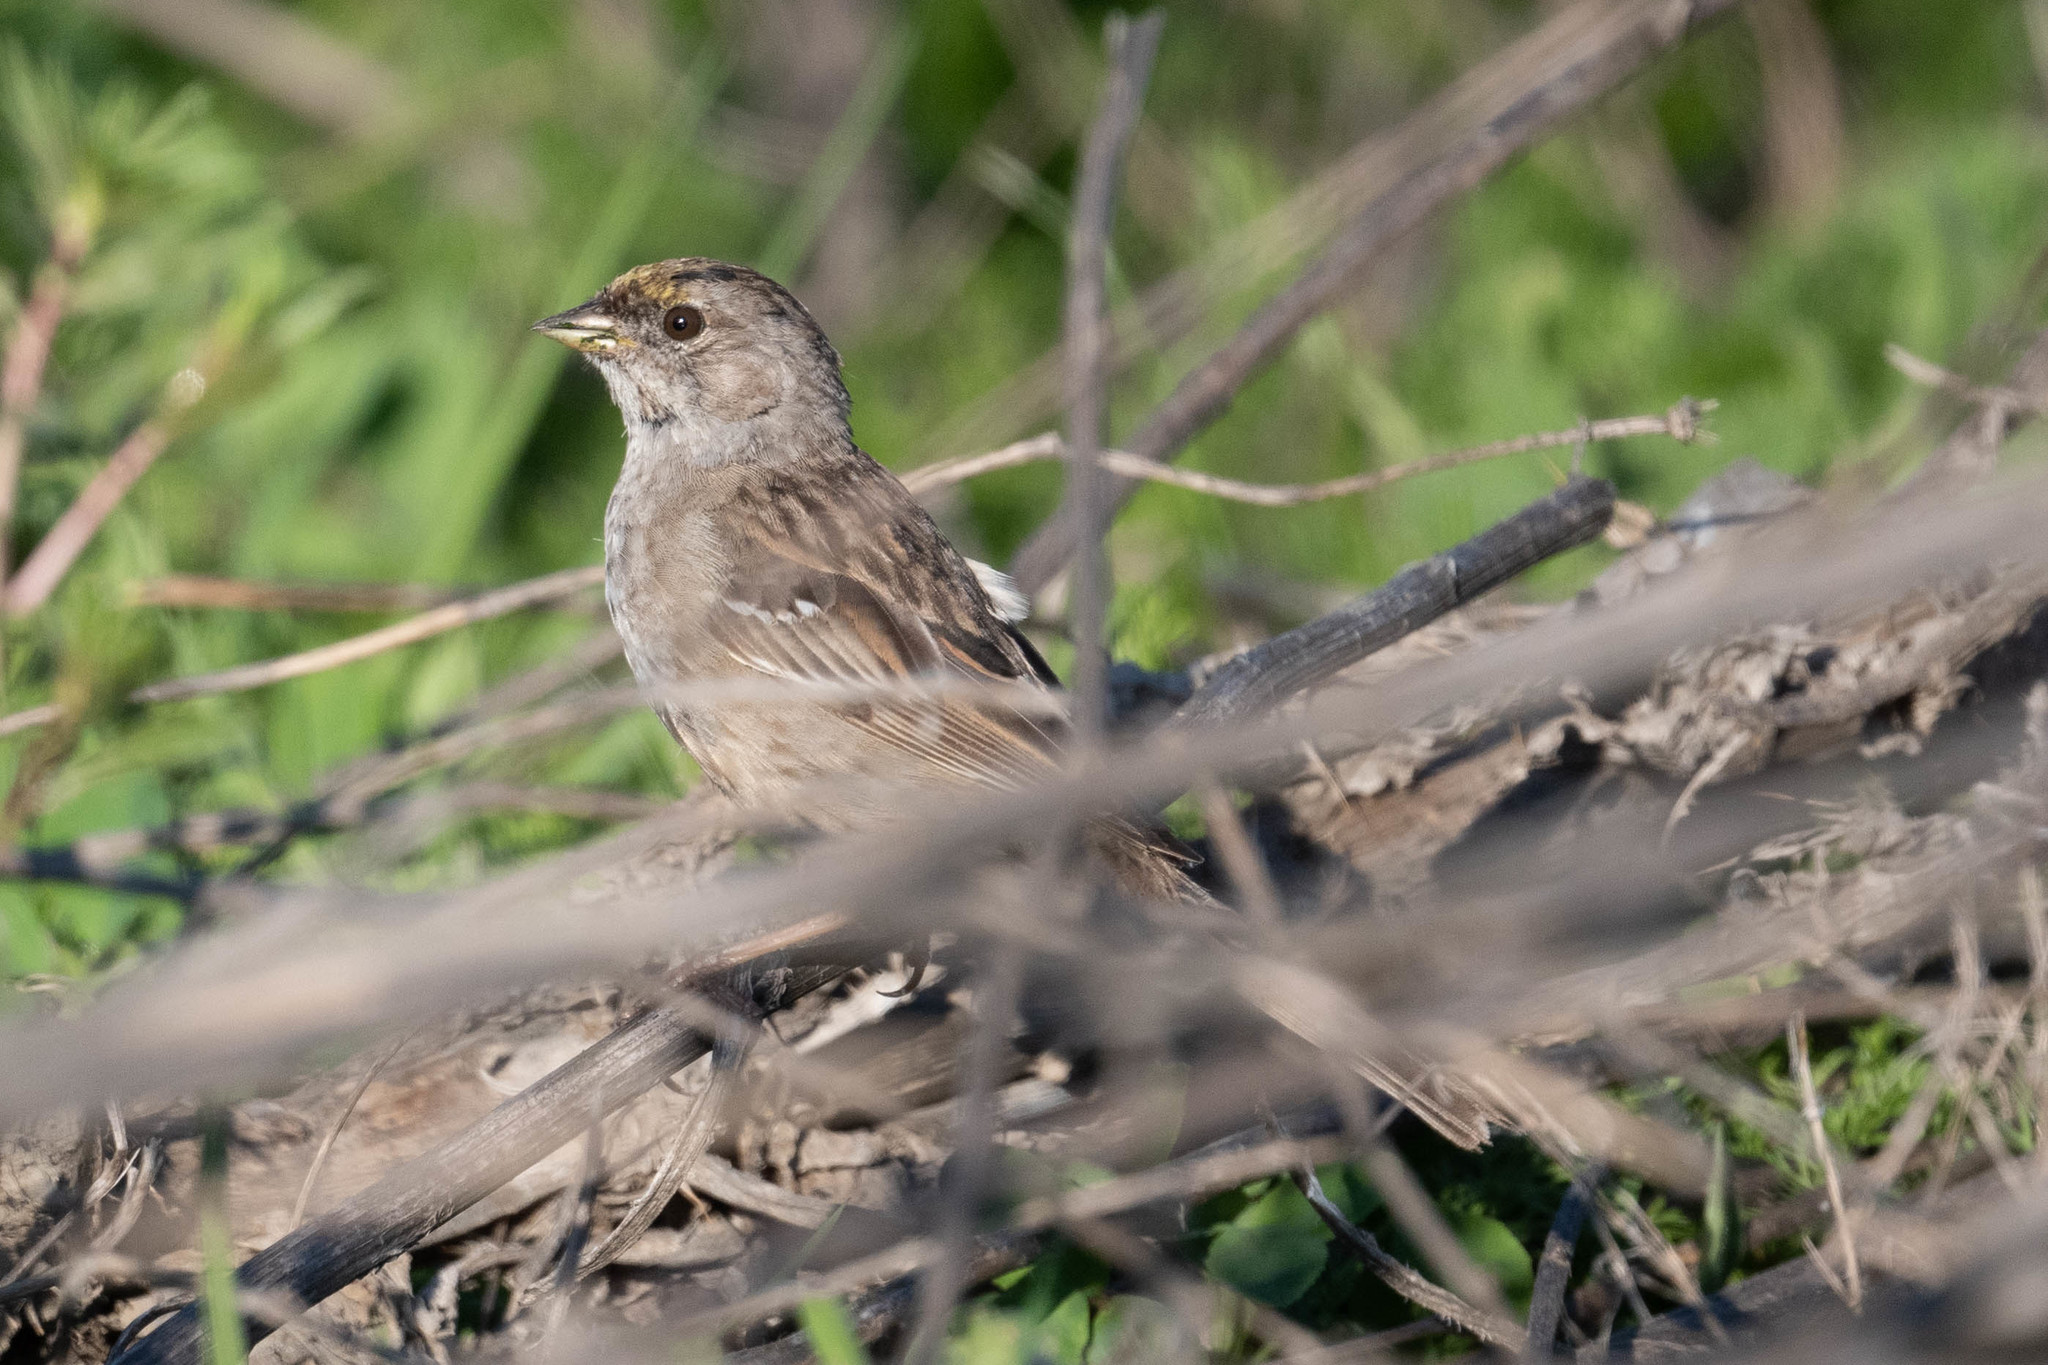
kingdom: Animalia
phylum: Chordata
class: Aves
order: Passeriformes
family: Passerellidae
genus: Zonotrichia
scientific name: Zonotrichia atricapilla
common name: Golden-crowned sparrow
